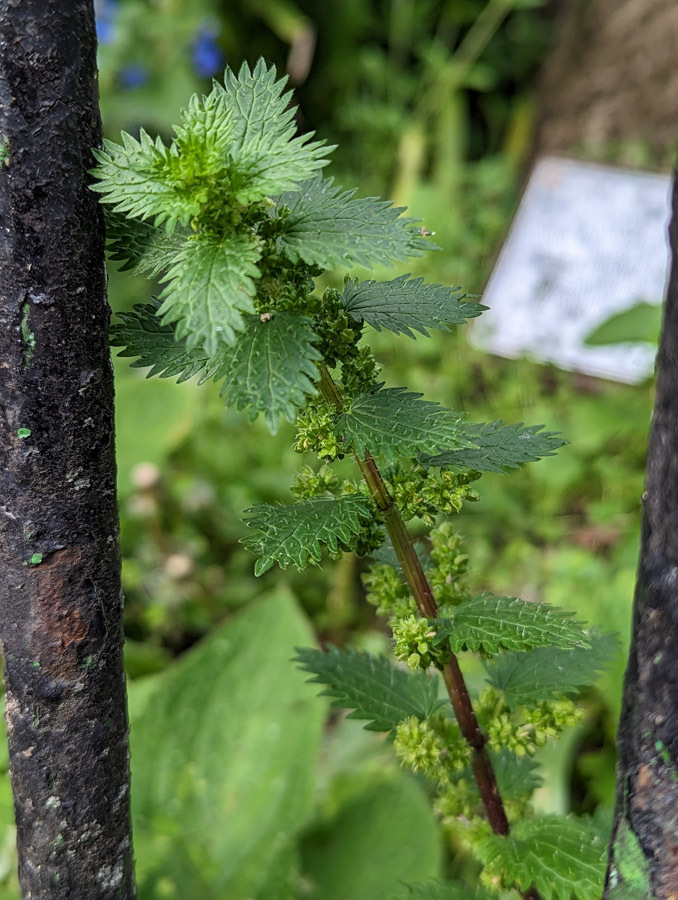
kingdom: Plantae
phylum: Tracheophyta
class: Magnoliopsida
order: Rosales
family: Urticaceae
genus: Urtica
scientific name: Urtica urens
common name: Dwarf nettle
